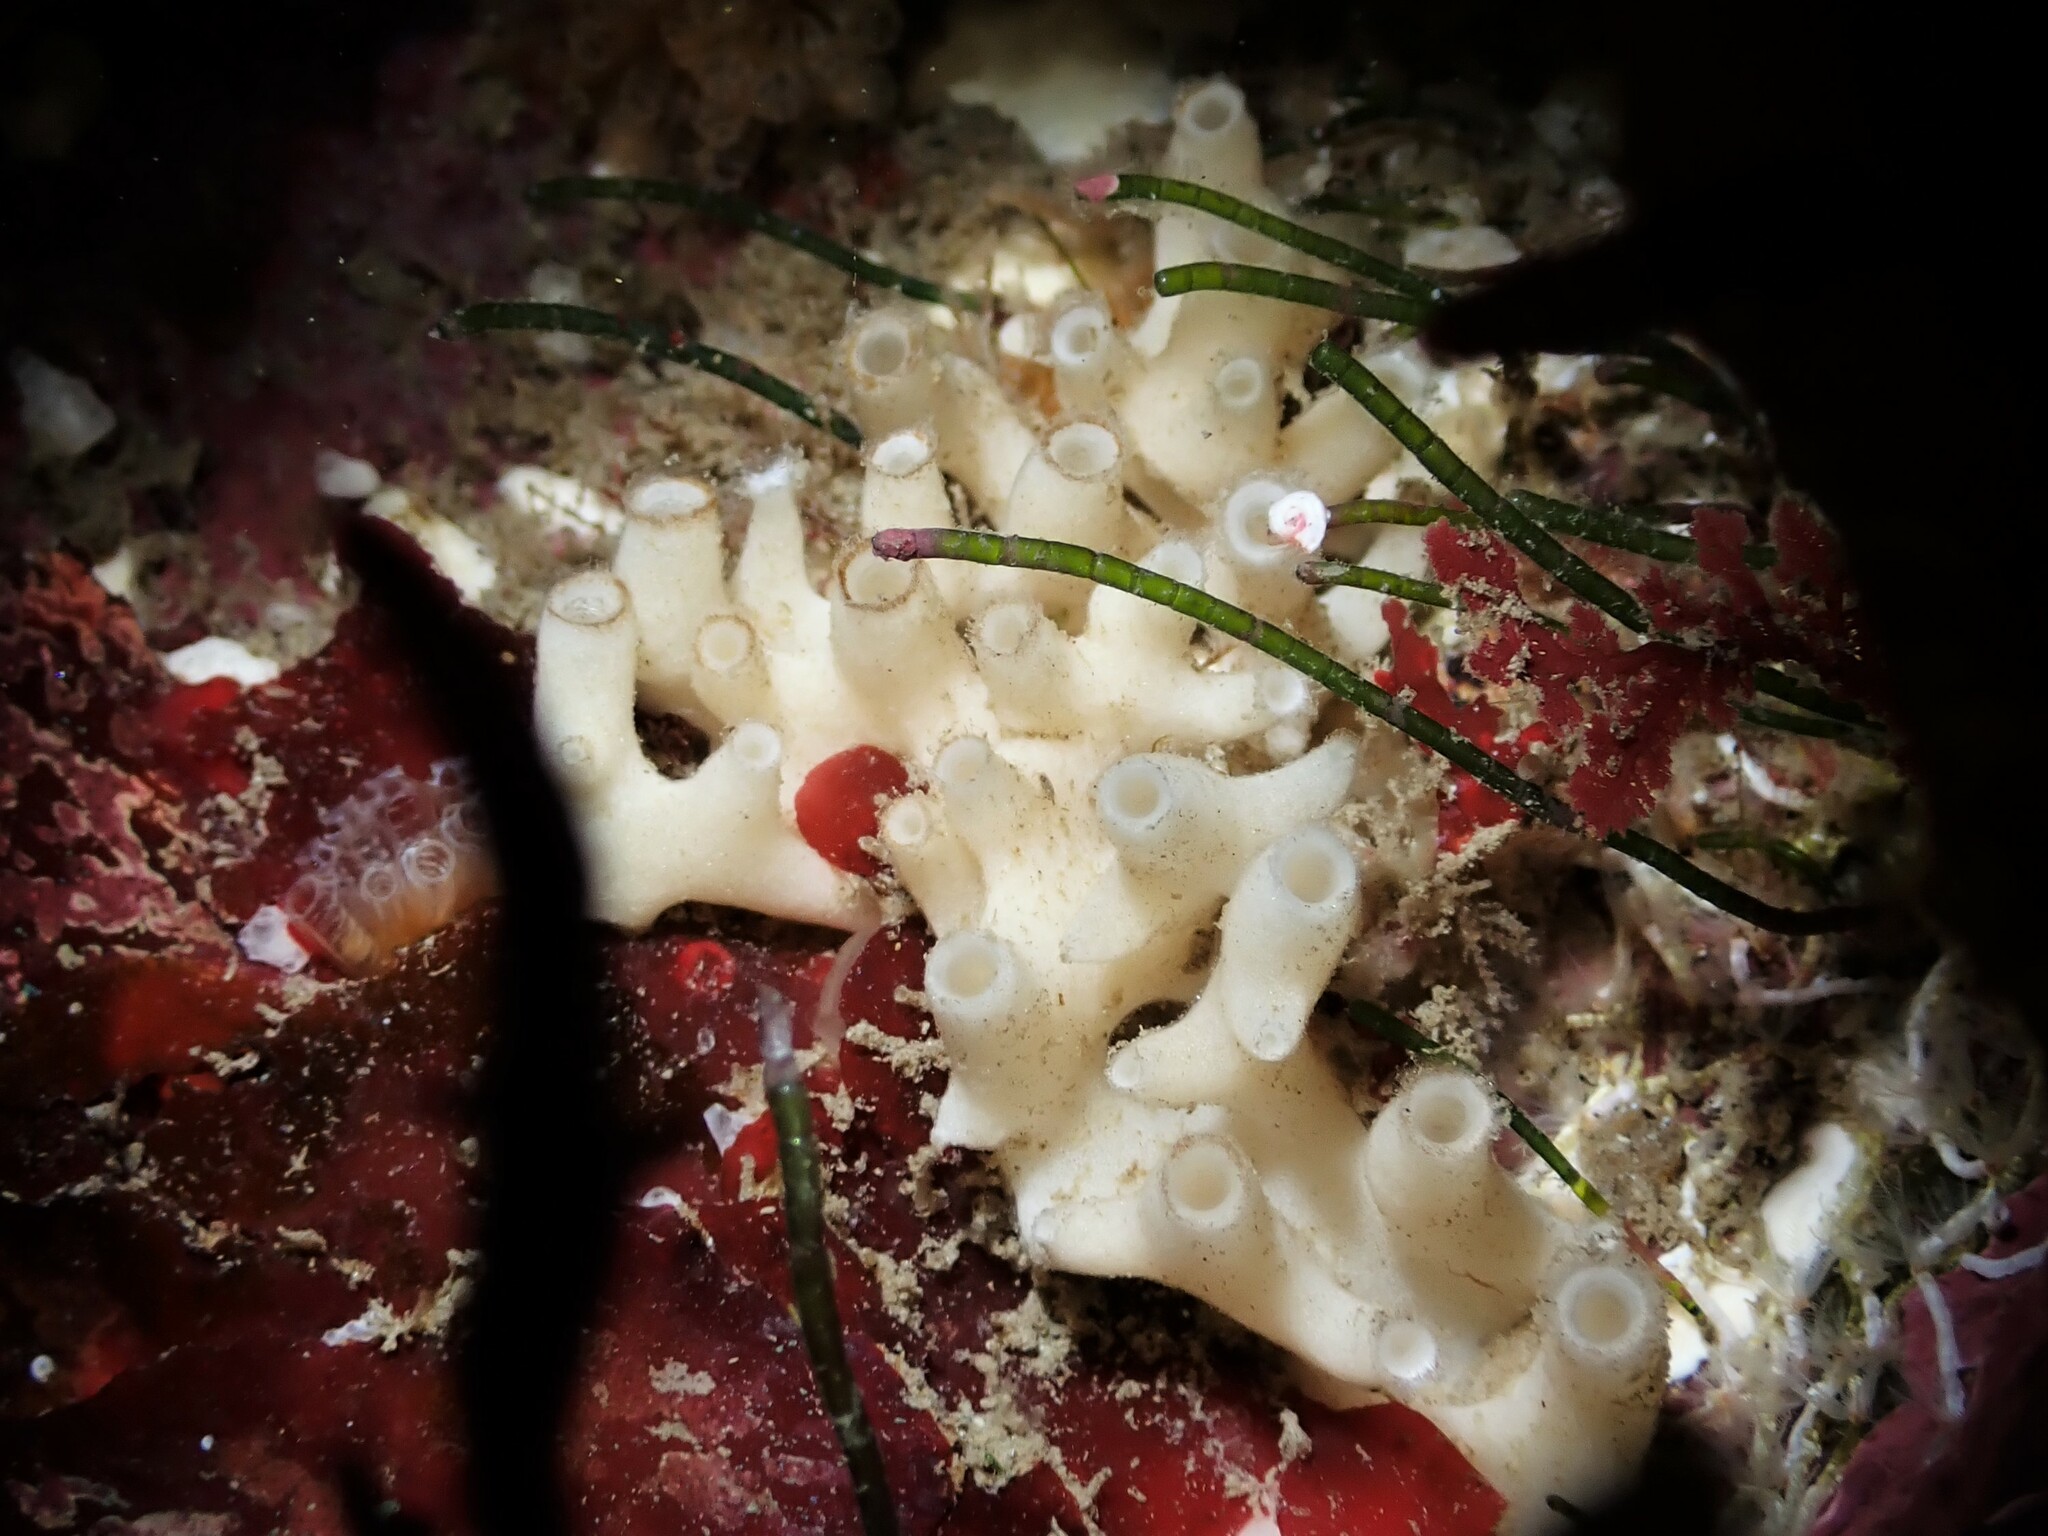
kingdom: Animalia
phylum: Porifera
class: Calcarea
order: Leucosolenida
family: Grantiidae
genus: Grantia
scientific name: Grantia ramulosa
